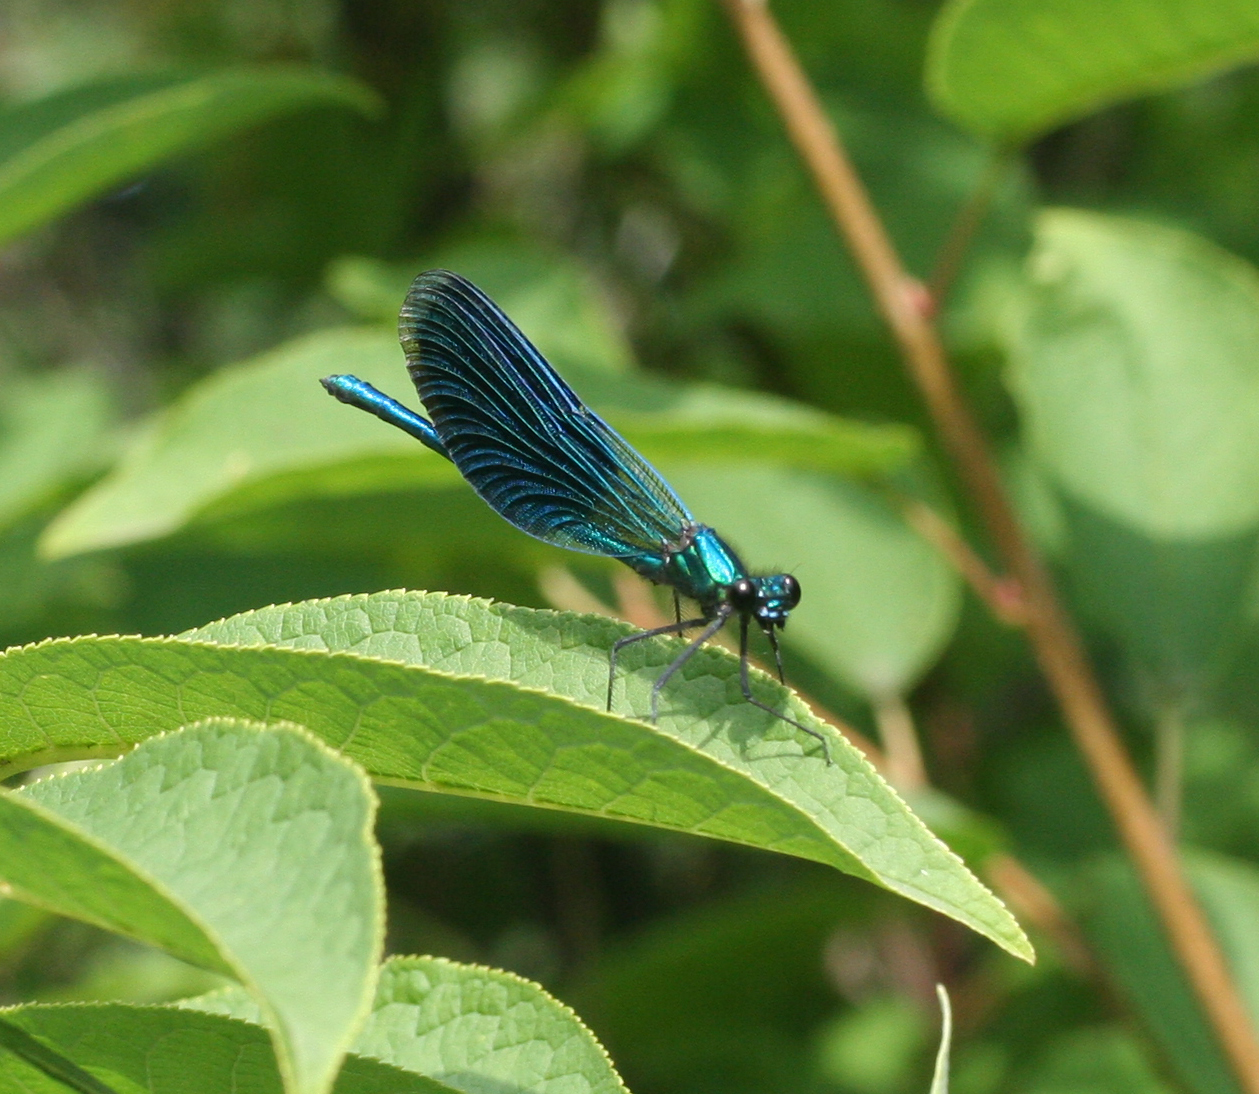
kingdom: Animalia
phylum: Arthropoda
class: Insecta
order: Odonata
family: Calopterygidae
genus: Calopteryx
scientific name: Calopteryx virgo
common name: Beautiful demoiselle
